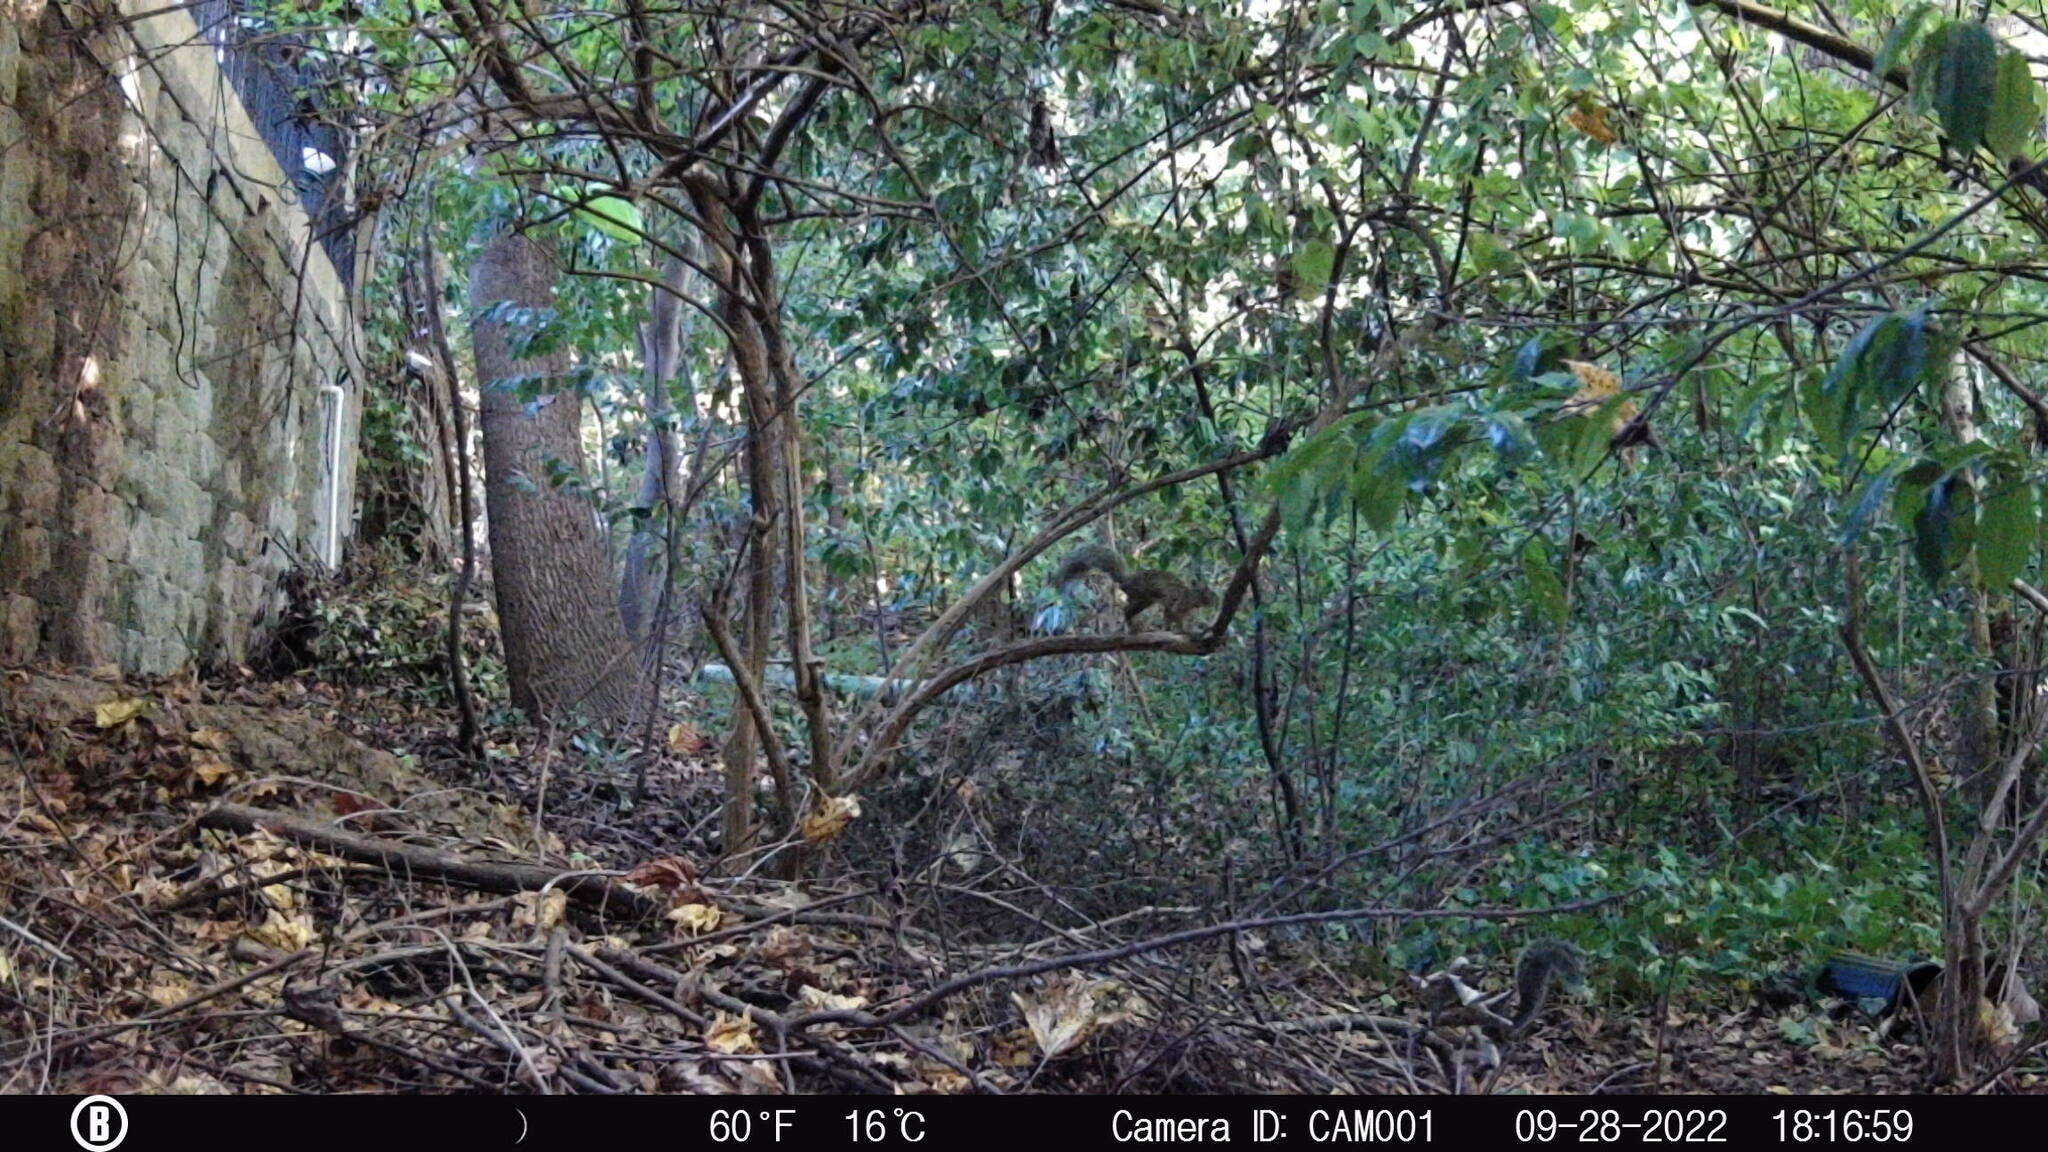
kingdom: Animalia
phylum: Chordata
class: Mammalia
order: Rodentia
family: Sciuridae
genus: Sciurus
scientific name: Sciurus carolinensis
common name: Eastern gray squirrel
